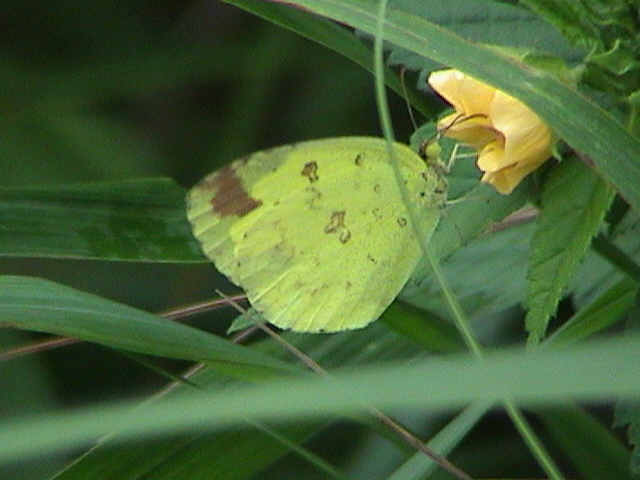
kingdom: Animalia
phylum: Arthropoda
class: Insecta
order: Lepidoptera
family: Pieridae
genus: Eurema
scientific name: Eurema hecabe
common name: Pale grass yellow
